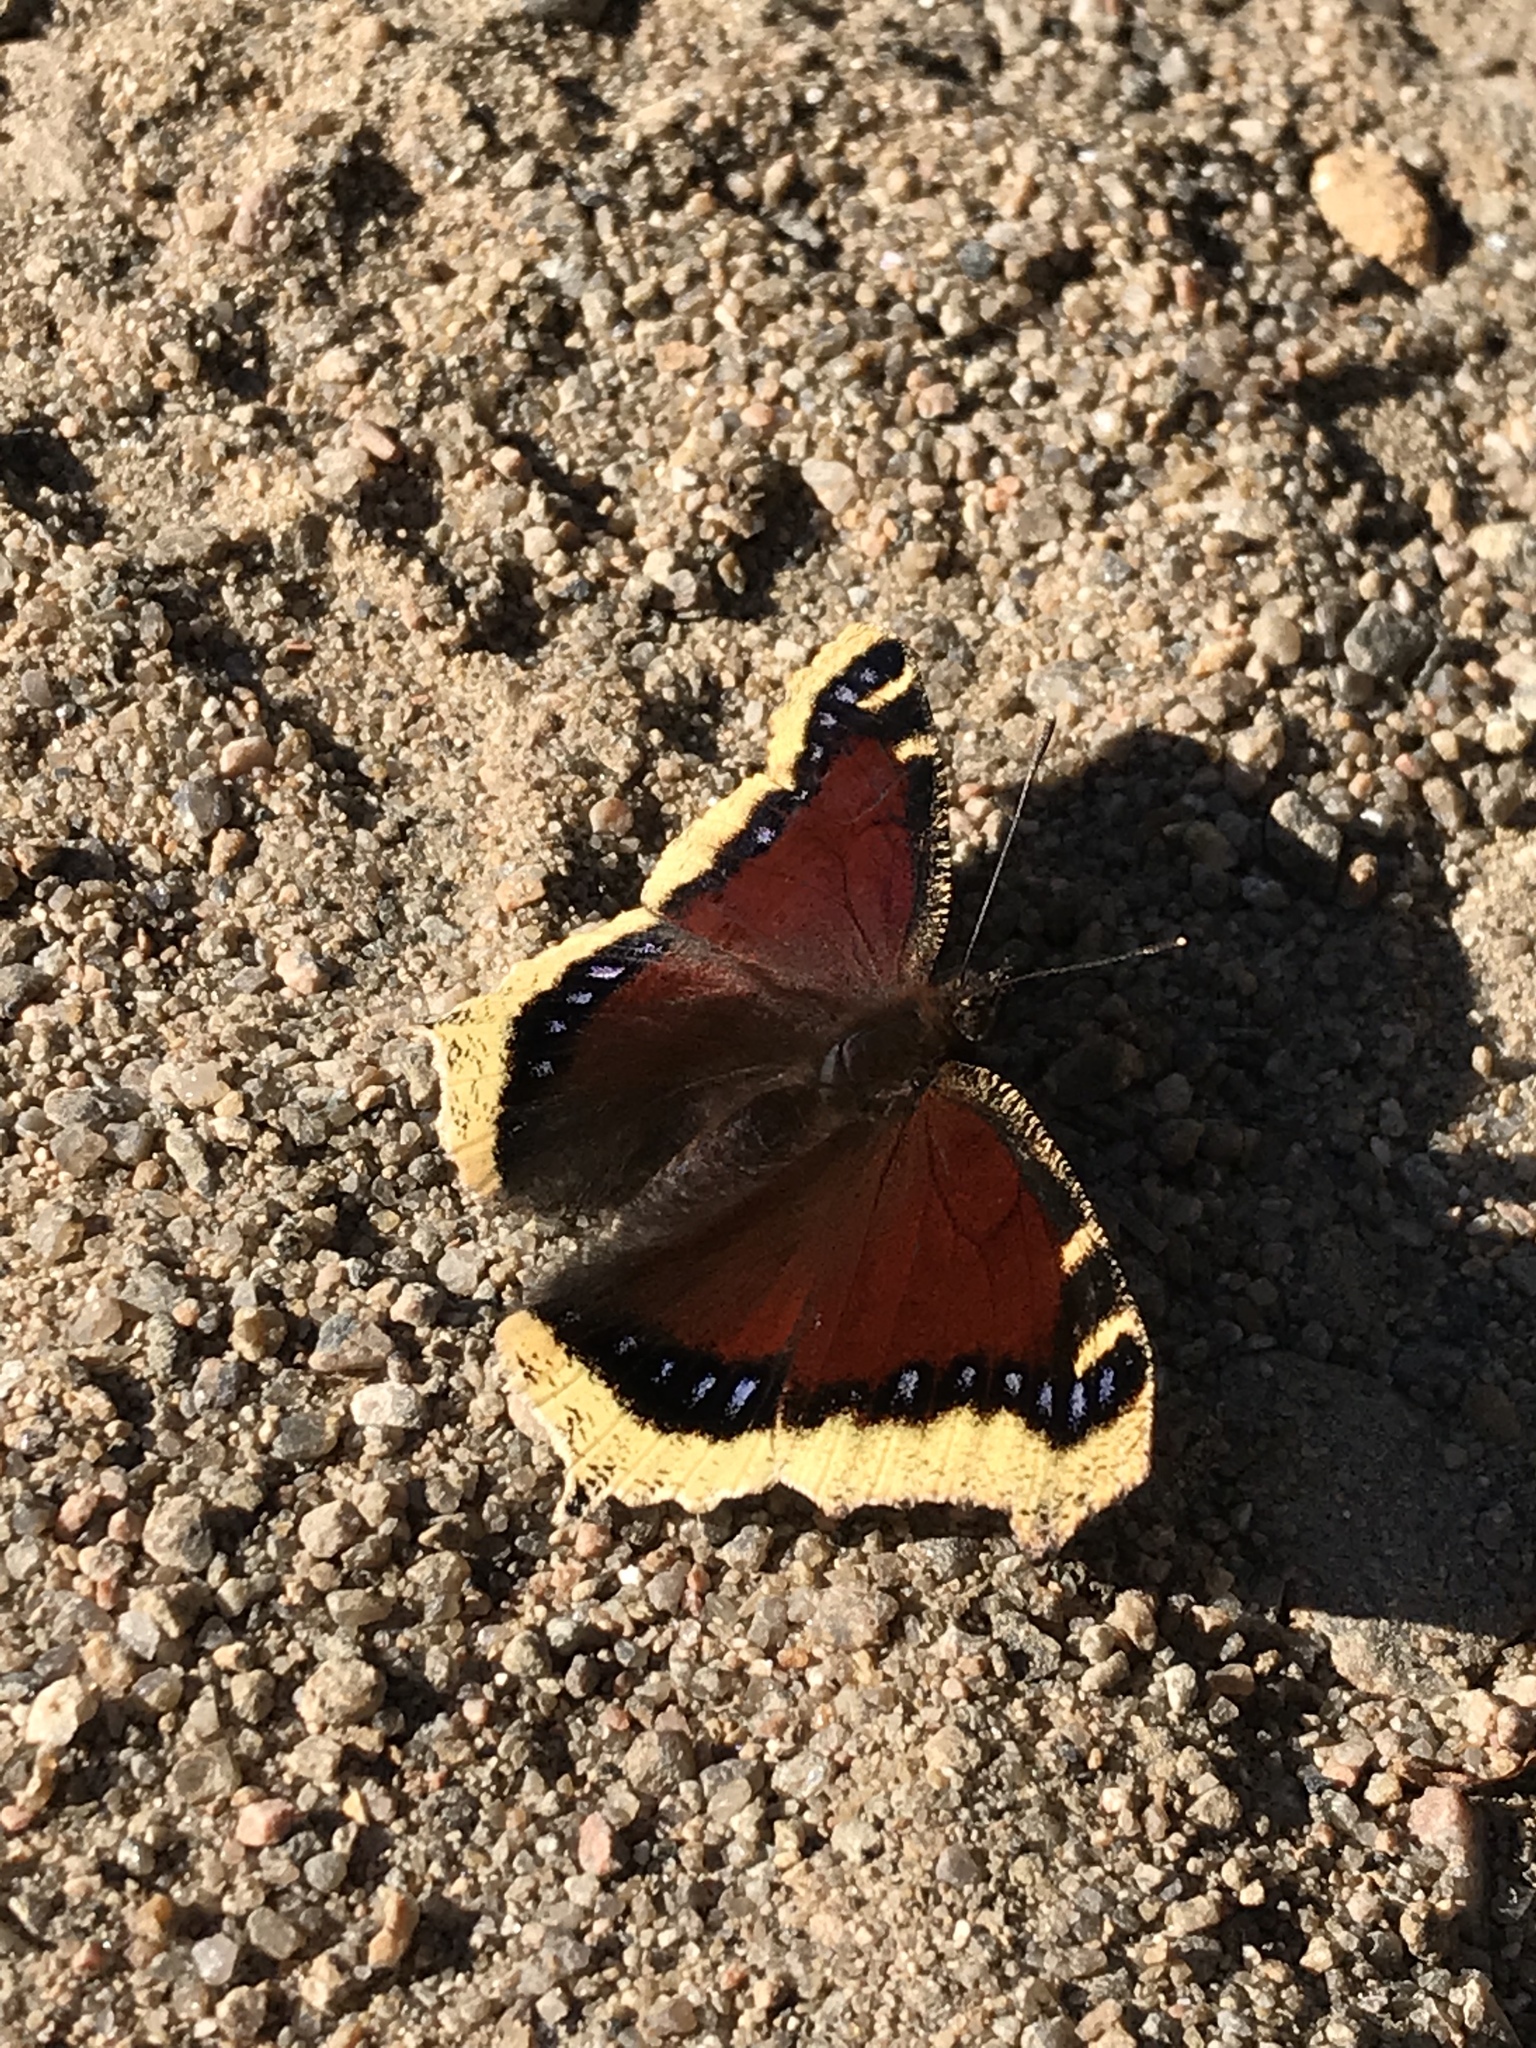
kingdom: Animalia
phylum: Arthropoda
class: Insecta
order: Lepidoptera
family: Nymphalidae
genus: Nymphalis
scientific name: Nymphalis antiopa
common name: Camberwell beauty
